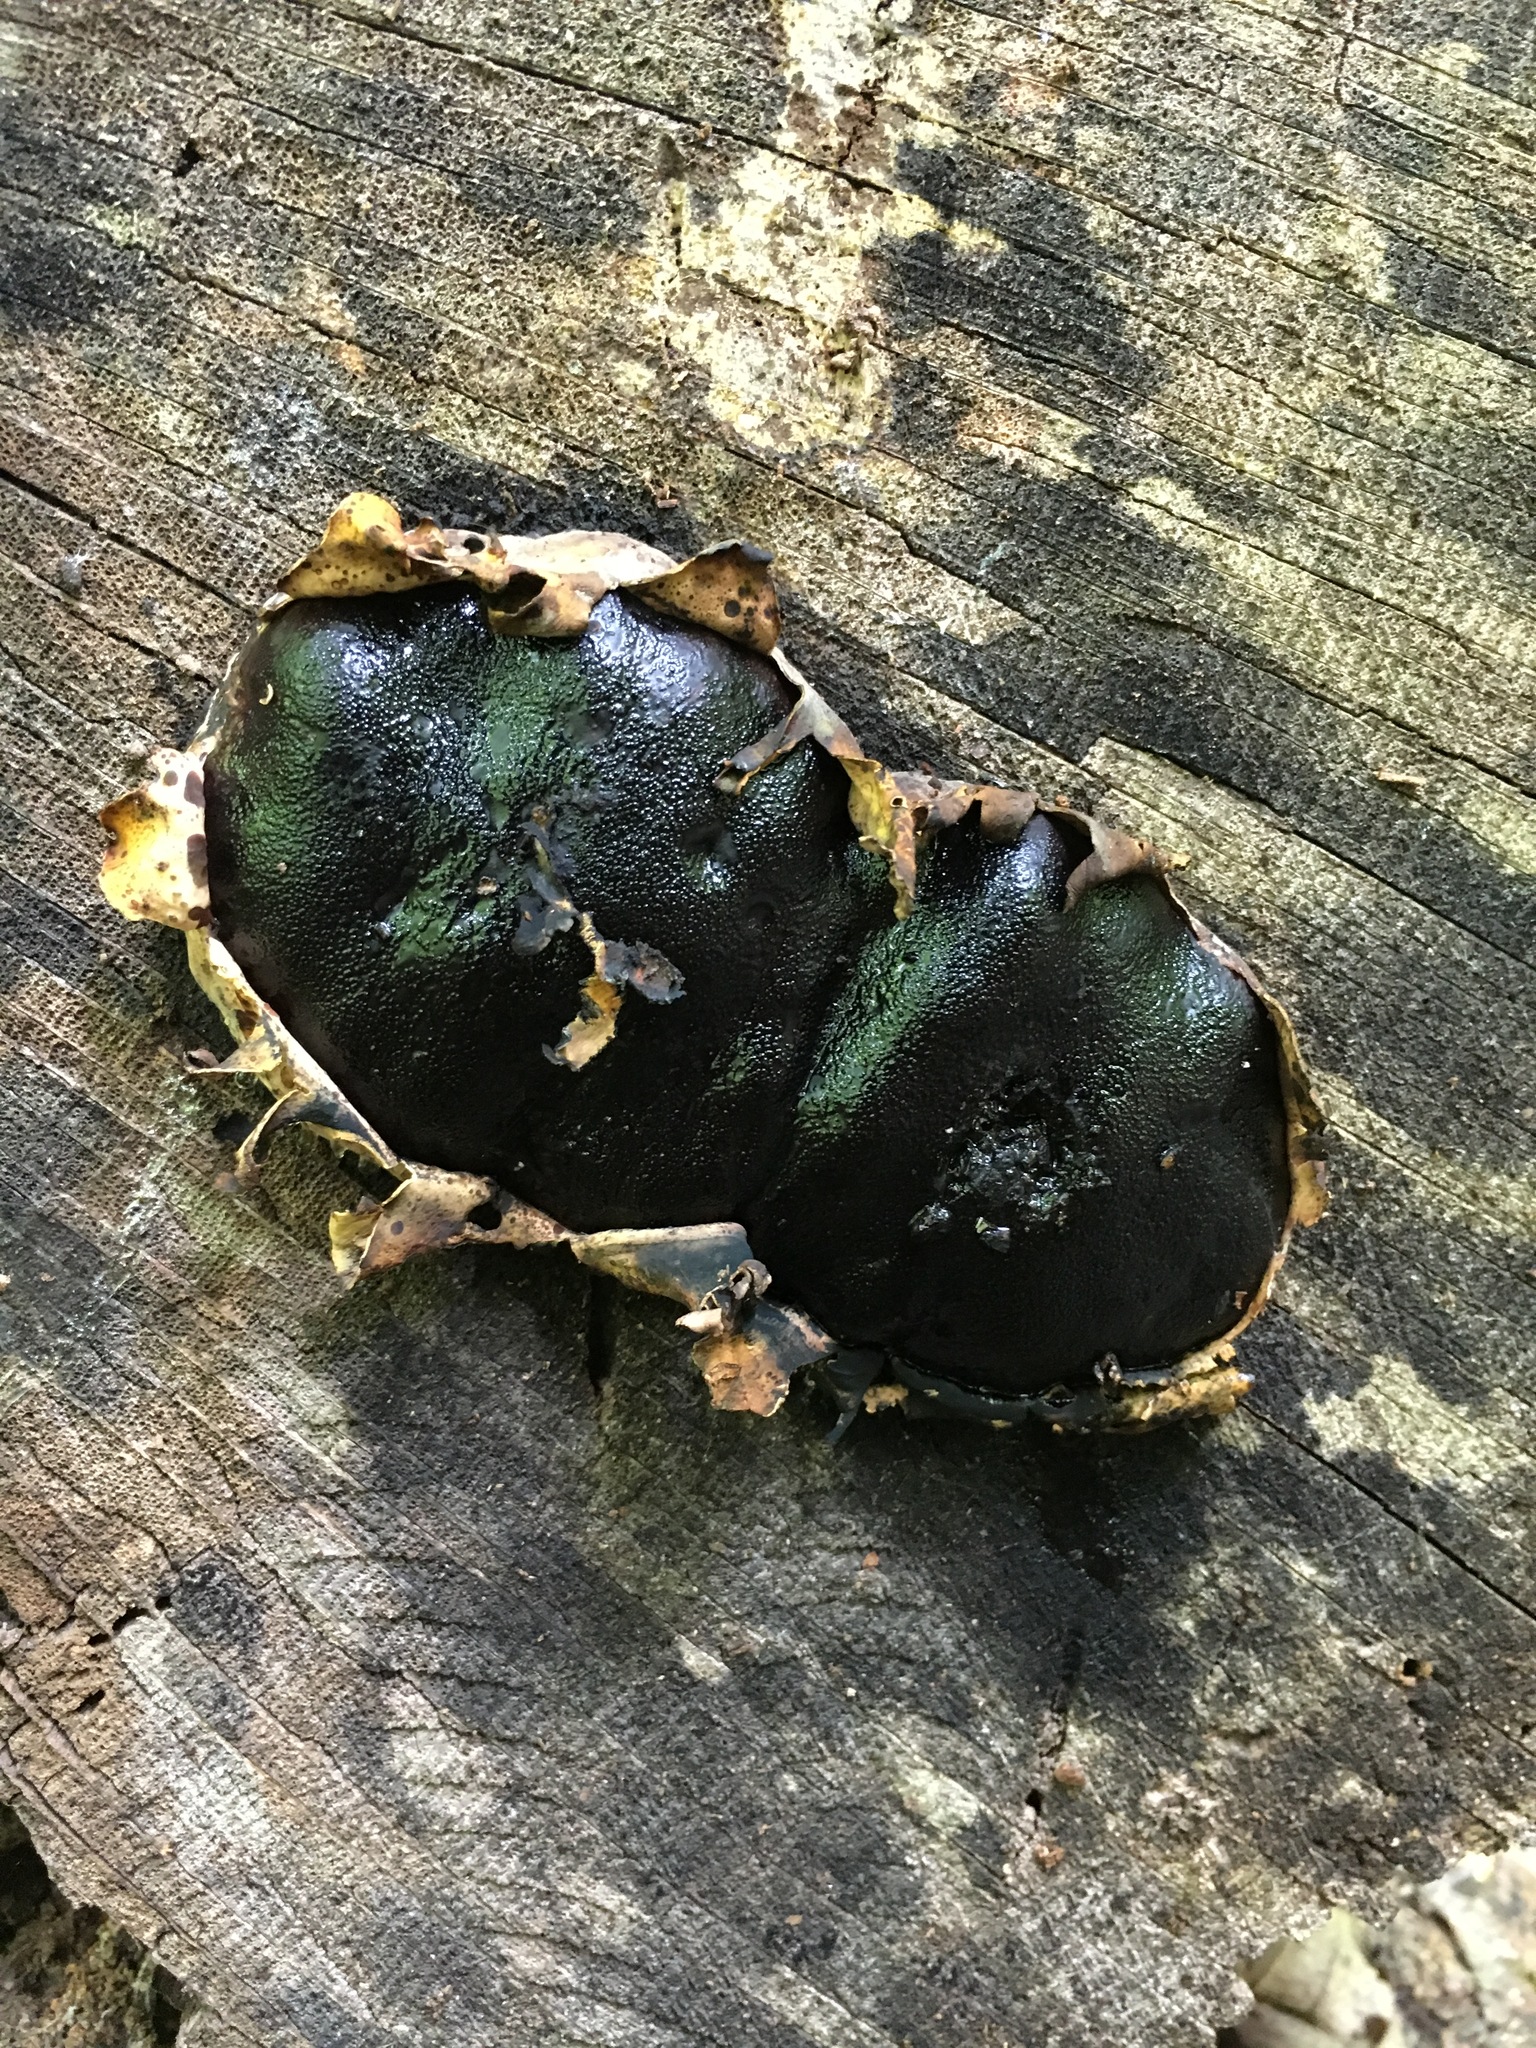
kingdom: Fungi
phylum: Ascomycota
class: Sordariomycetes
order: Boliniales
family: Boliniaceae
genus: Camarops
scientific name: Camarops petersii
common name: Dog's nose fungus
